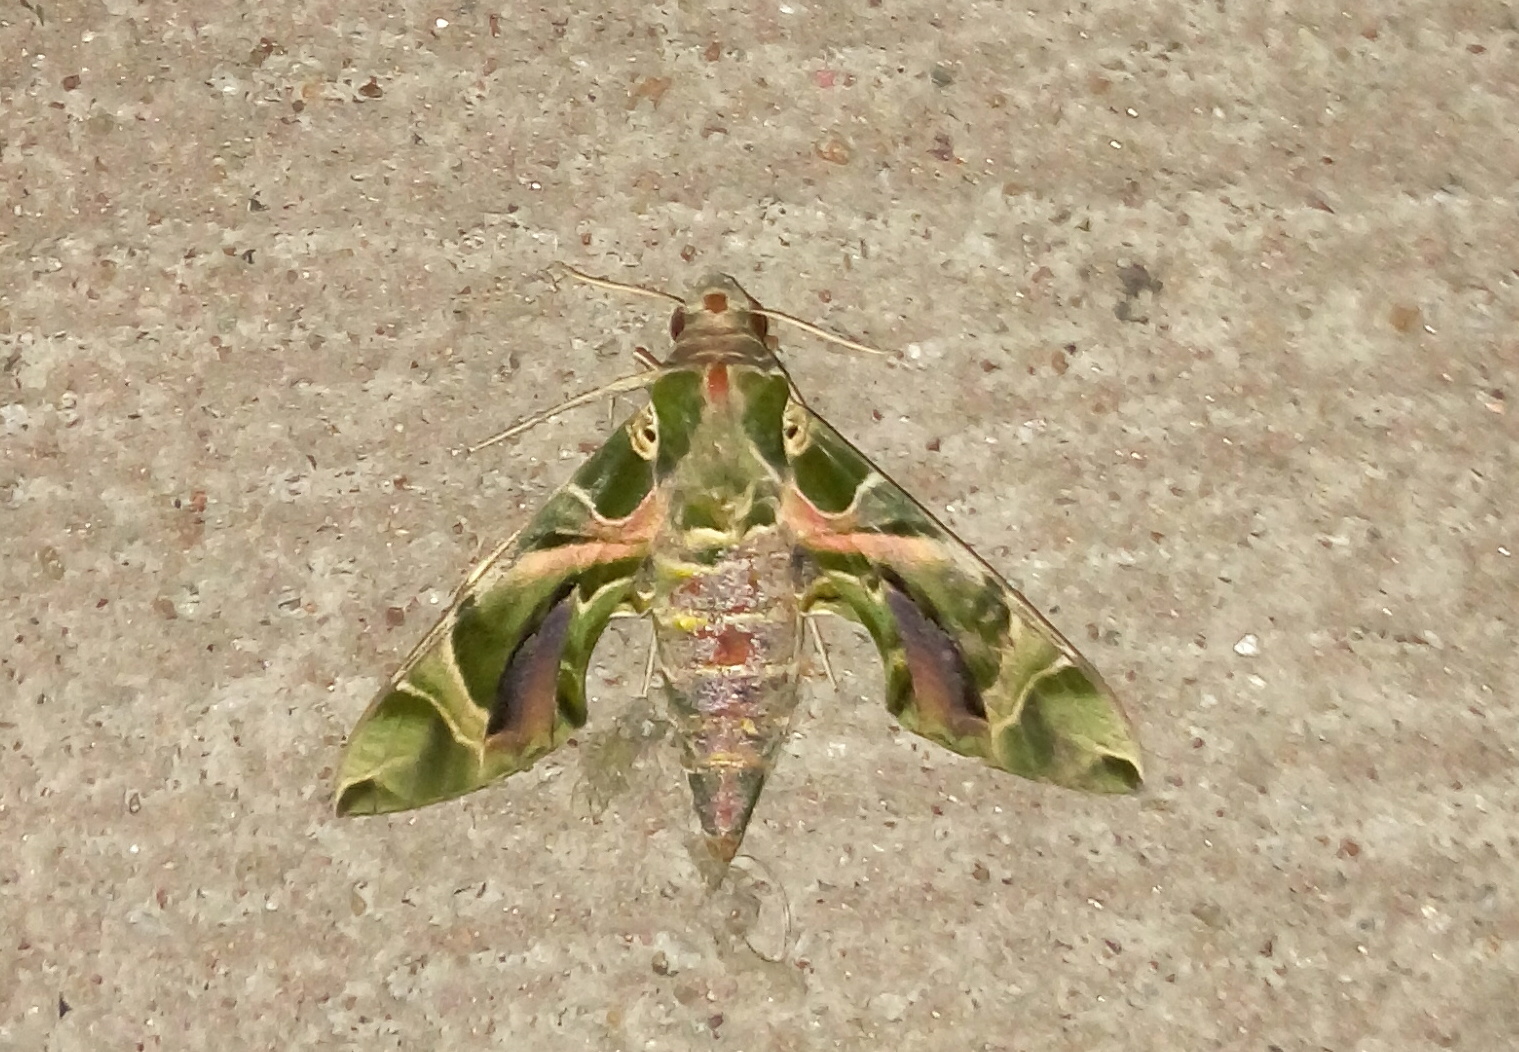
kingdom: Animalia
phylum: Arthropoda
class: Insecta
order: Lepidoptera
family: Sphingidae
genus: Daphnis
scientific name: Daphnis nerii
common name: Oleander hawk-moth
